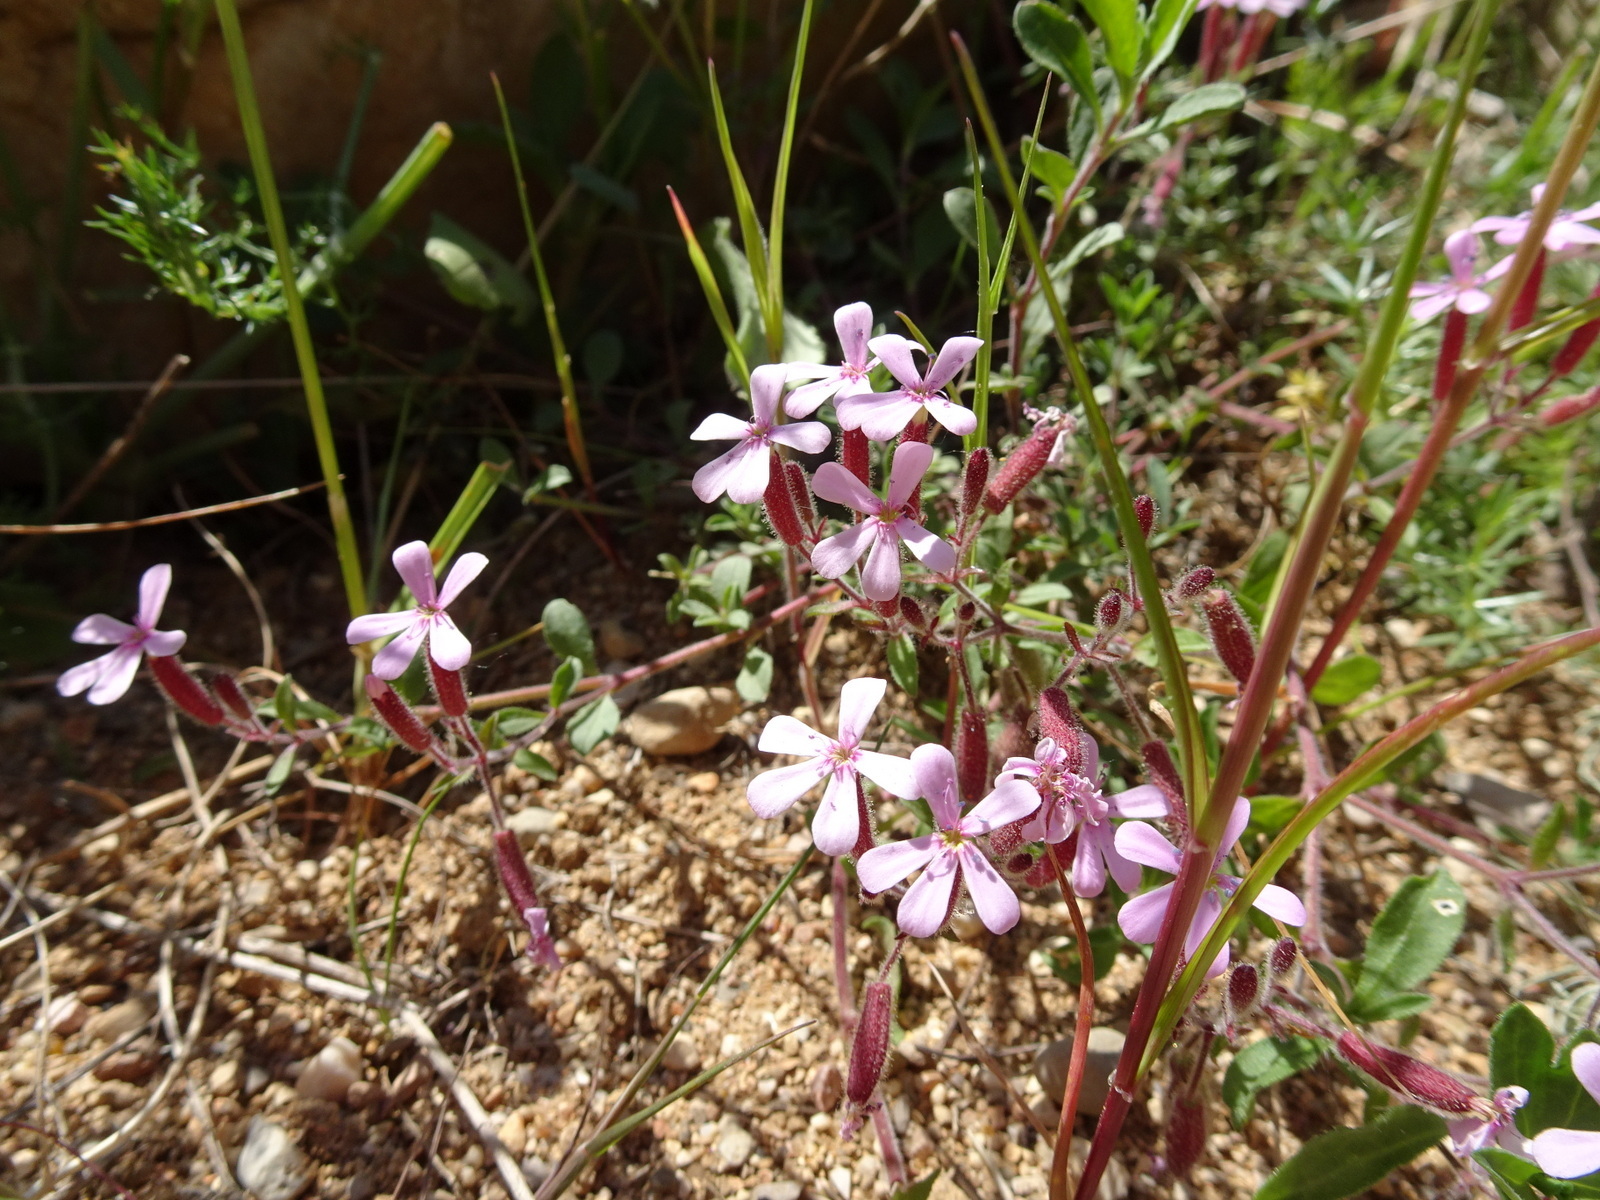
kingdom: Plantae
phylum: Tracheophyta
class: Magnoliopsida
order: Caryophyllales
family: Caryophyllaceae
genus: Saponaria
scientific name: Saponaria ocymoides
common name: Rock soapwort
